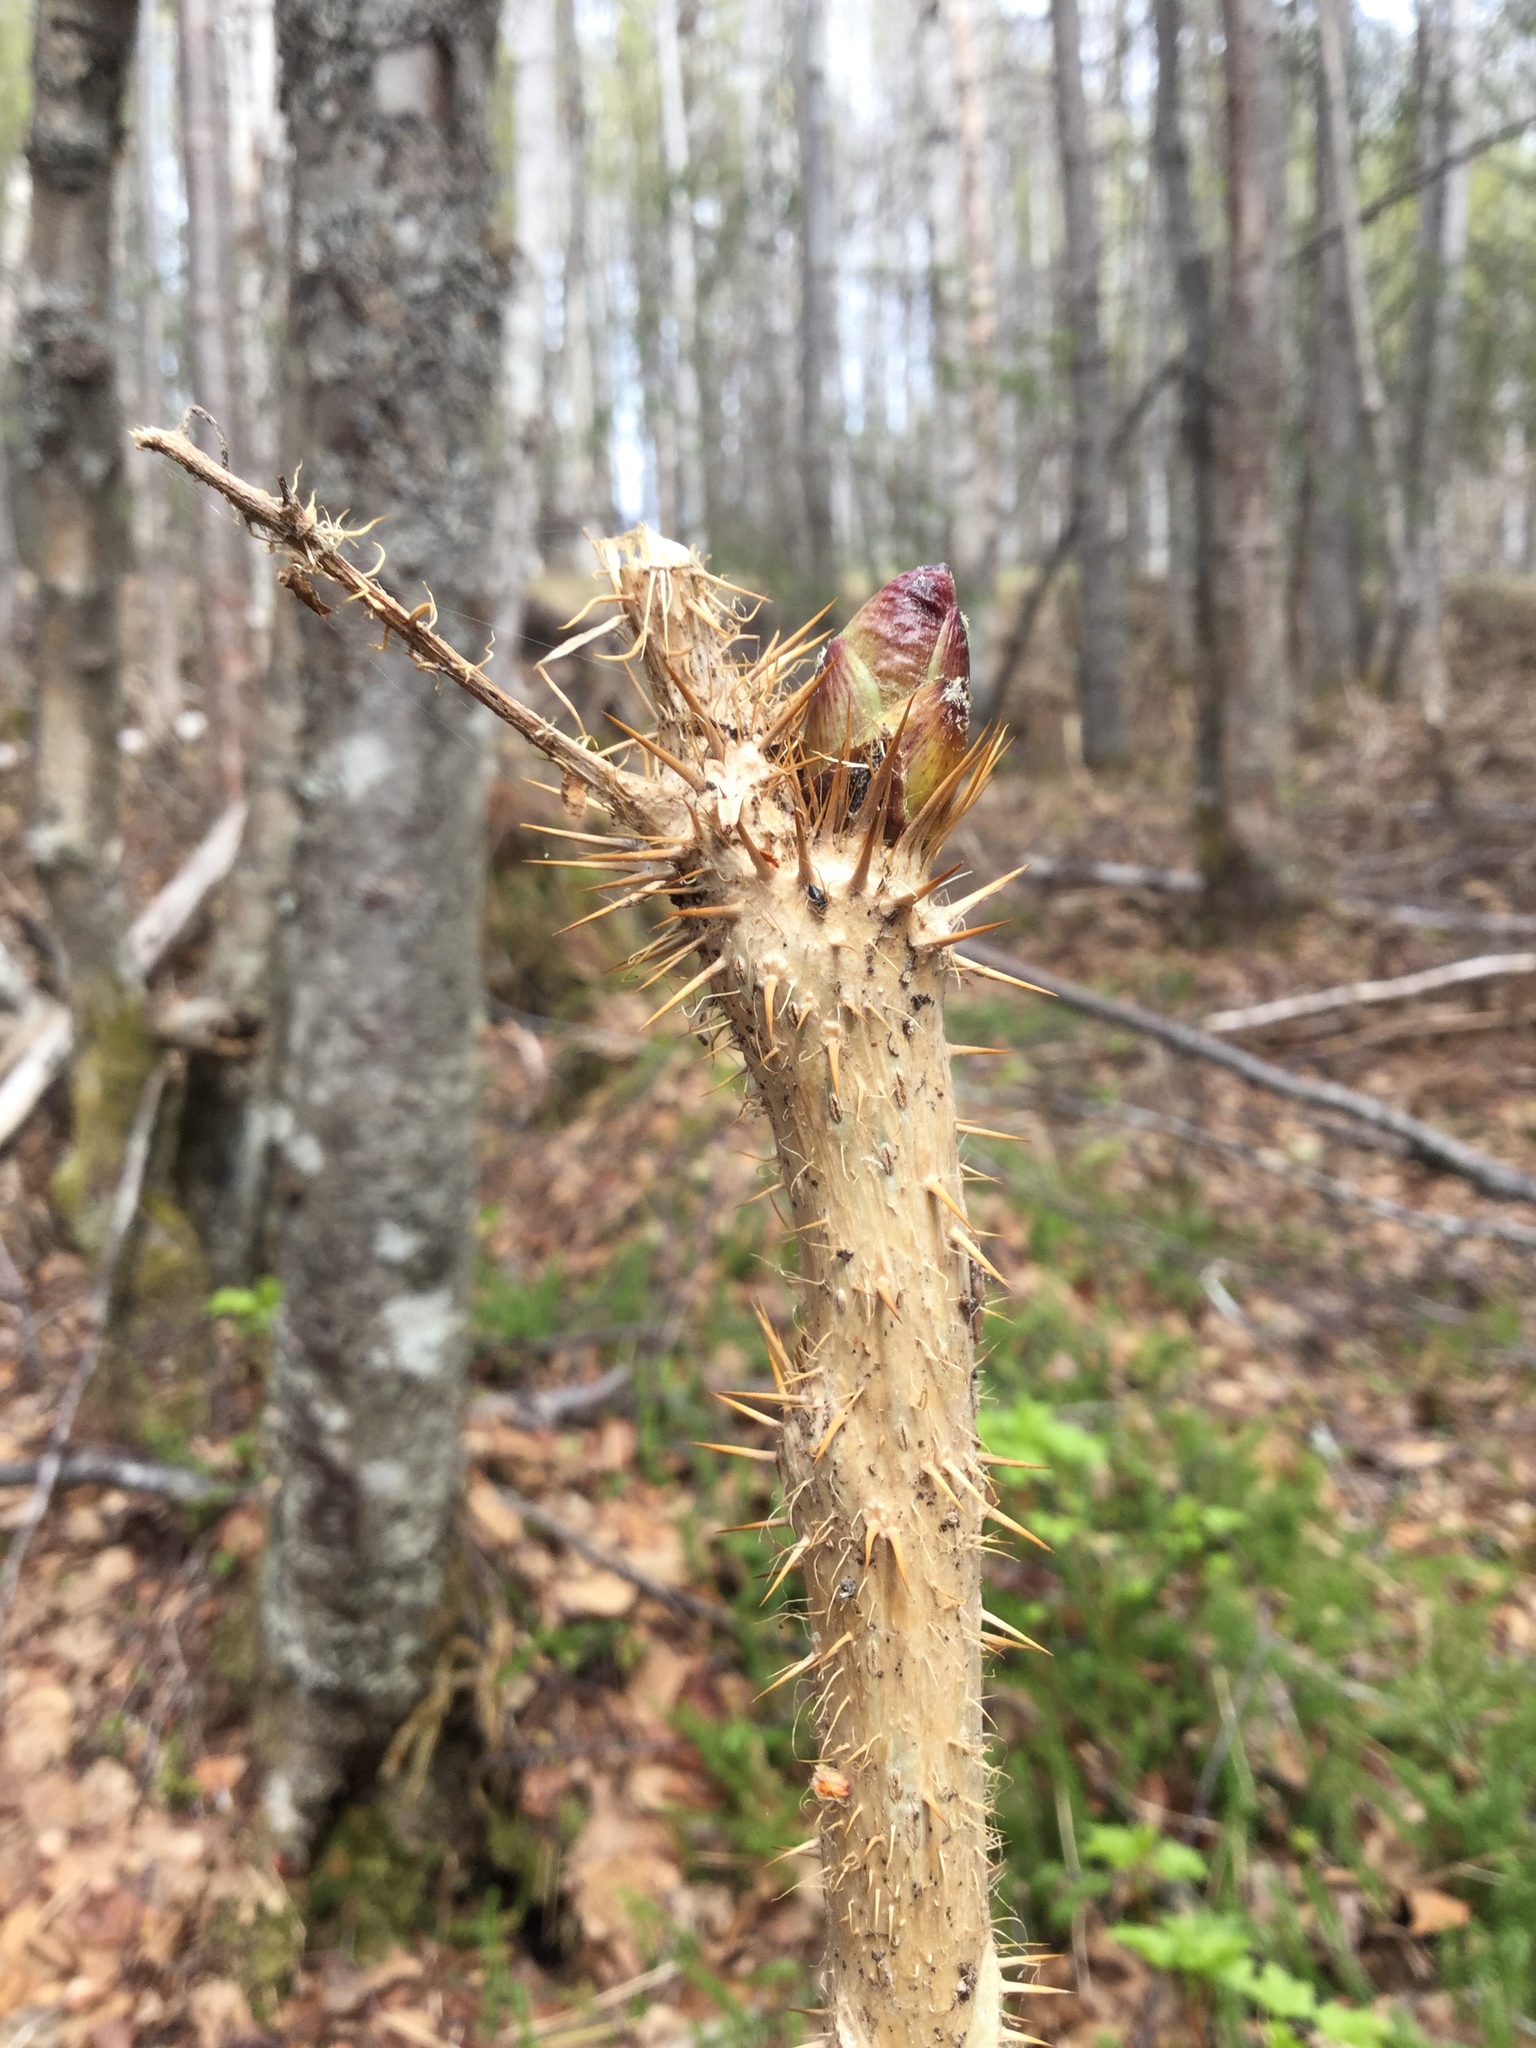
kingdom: Plantae
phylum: Tracheophyta
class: Magnoliopsida
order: Apiales
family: Araliaceae
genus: Oplopanax
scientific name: Oplopanax horridus
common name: Devil's walking-stick
